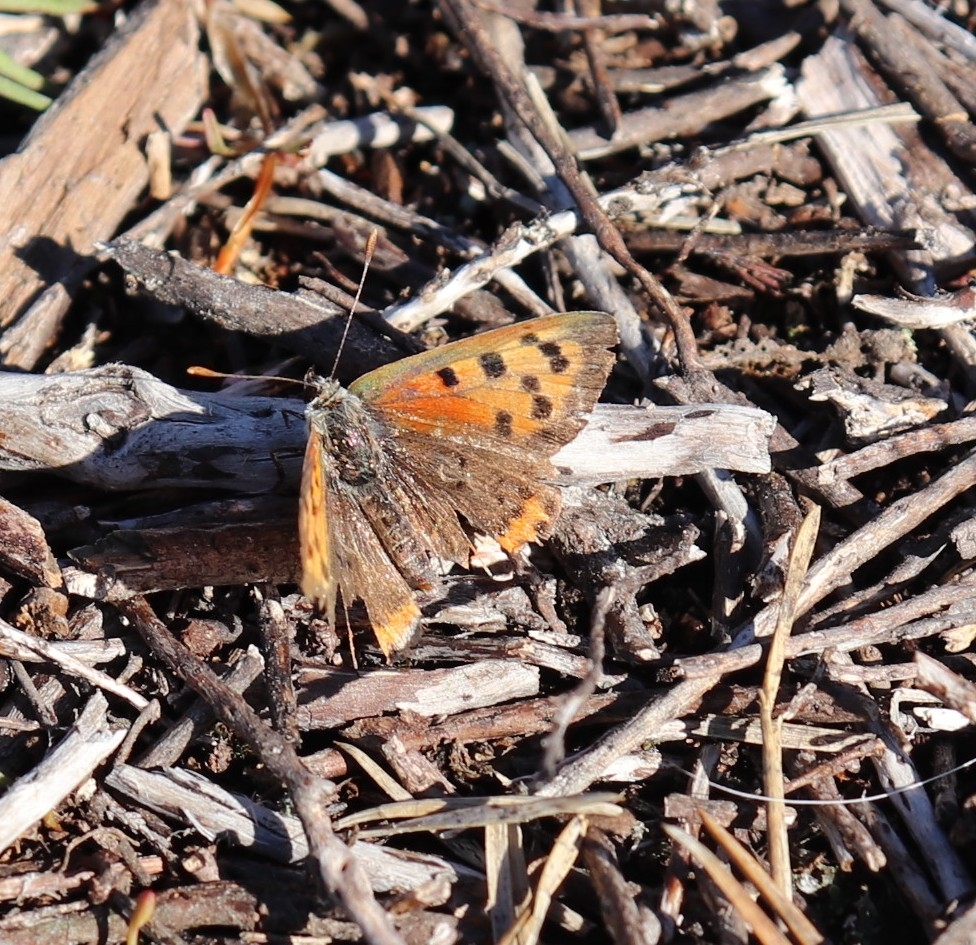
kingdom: Animalia
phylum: Arthropoda
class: Insecta
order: Lepidoptera
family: Lycaenidae
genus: Lycaena
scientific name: Lycaena phlaeas
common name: Small copper
